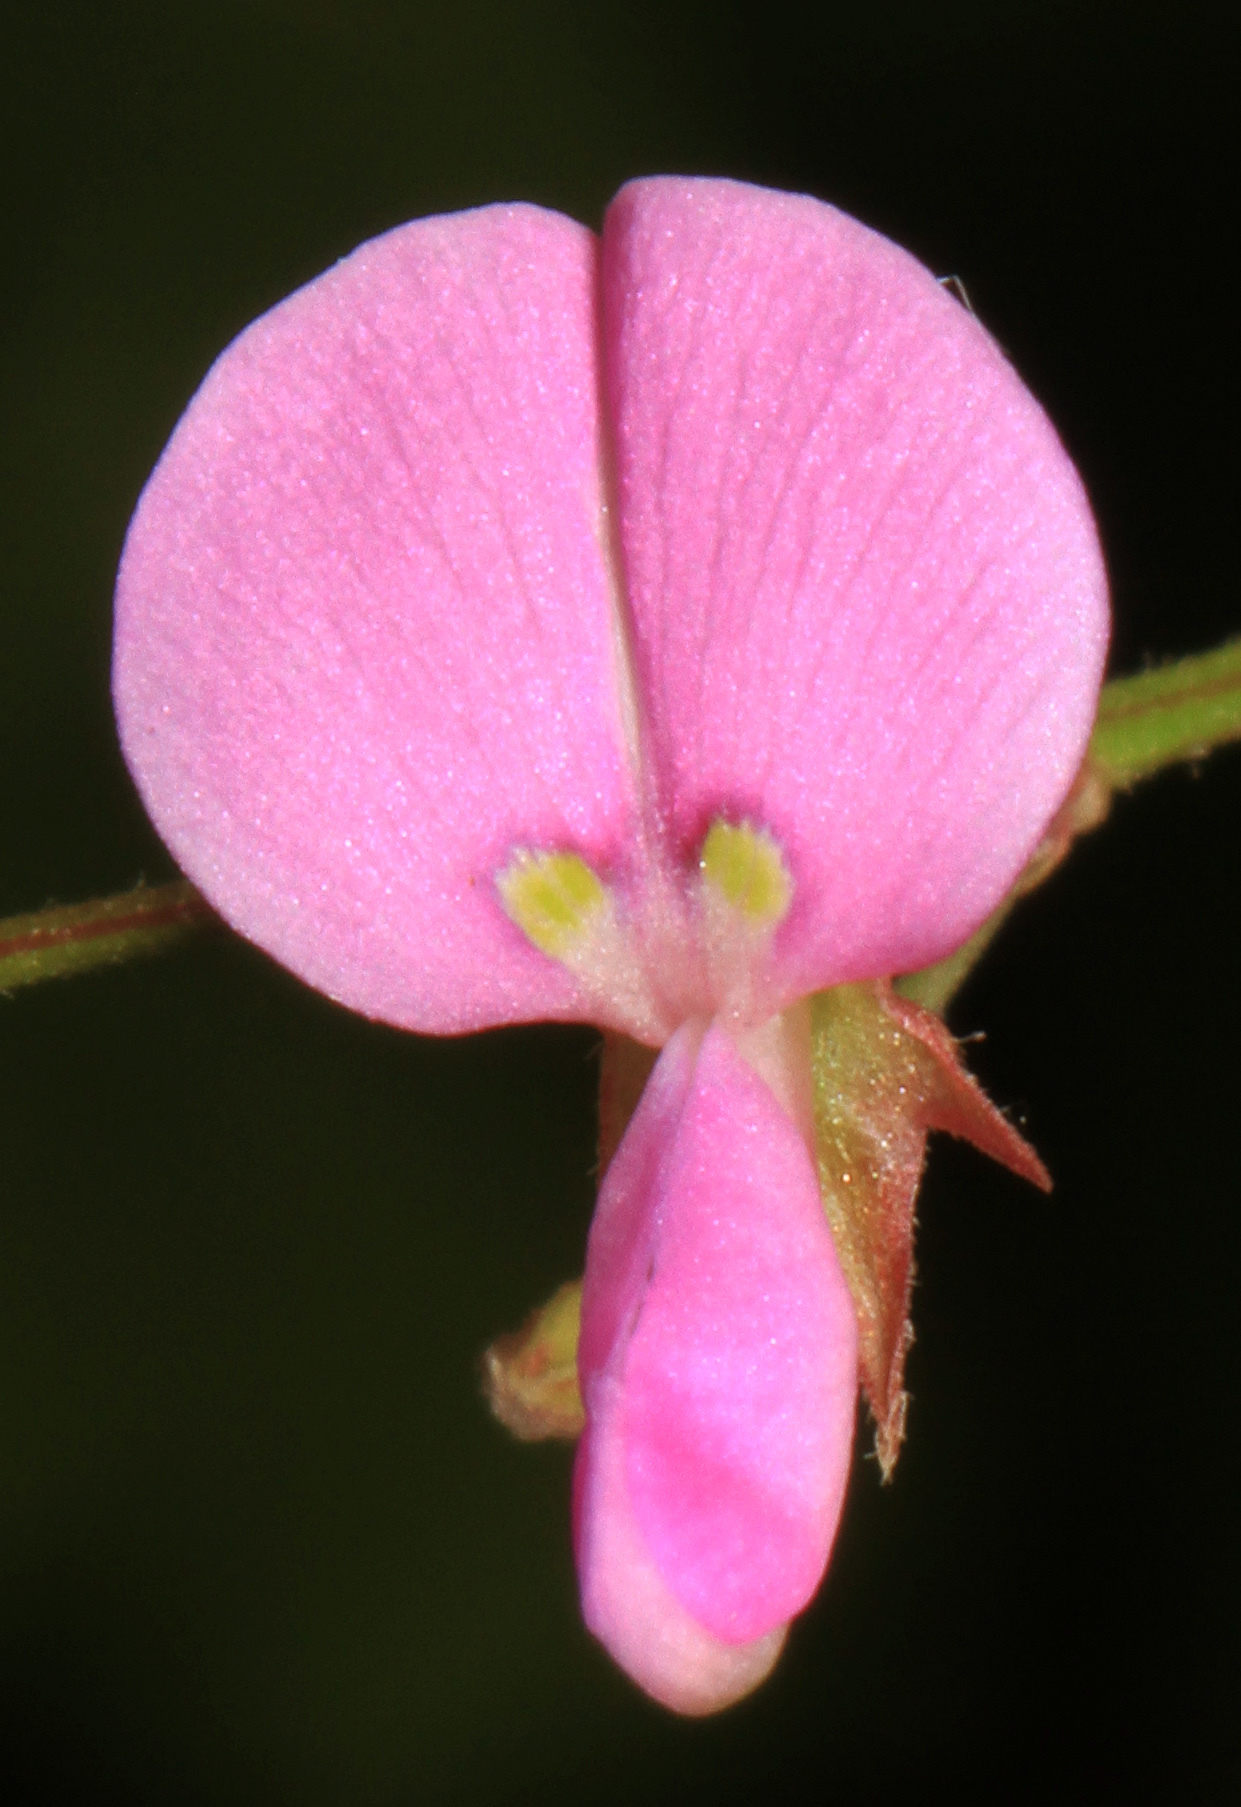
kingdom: Plantae
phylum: Tracheophyta
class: Magnoliopsida
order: Fabales
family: Fabaceae
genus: Desmodium
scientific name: Desmodium paniculatum
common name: Panicled tick-clover
